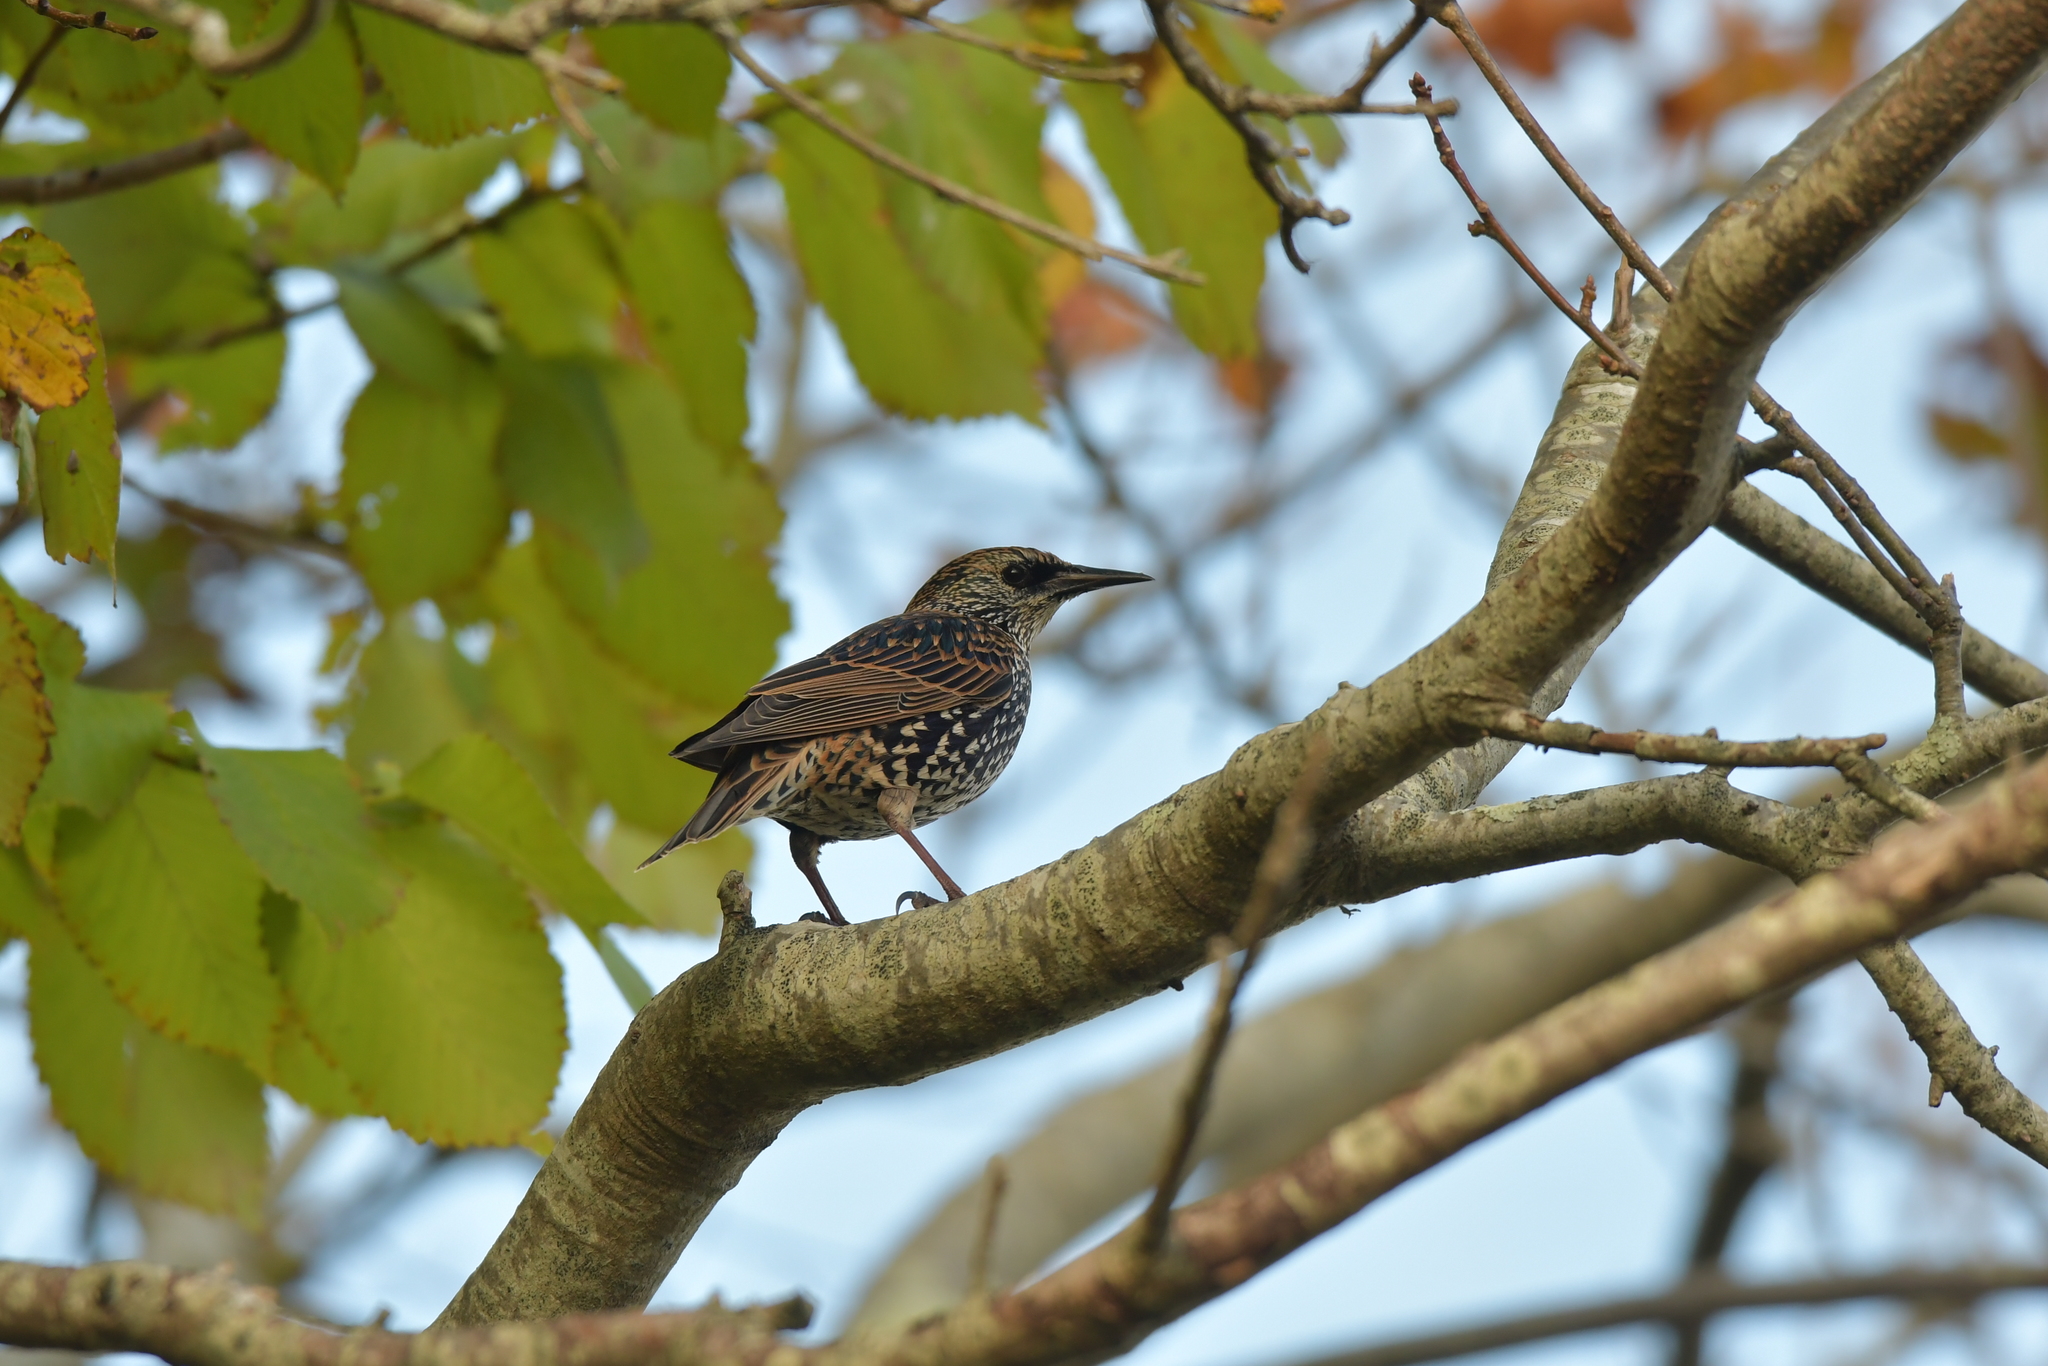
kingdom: Animalia
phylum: Chordata
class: Aves
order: Passeriformes
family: Sturnidae
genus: Sturnus
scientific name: Sturnus vulgaris
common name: Common starling
